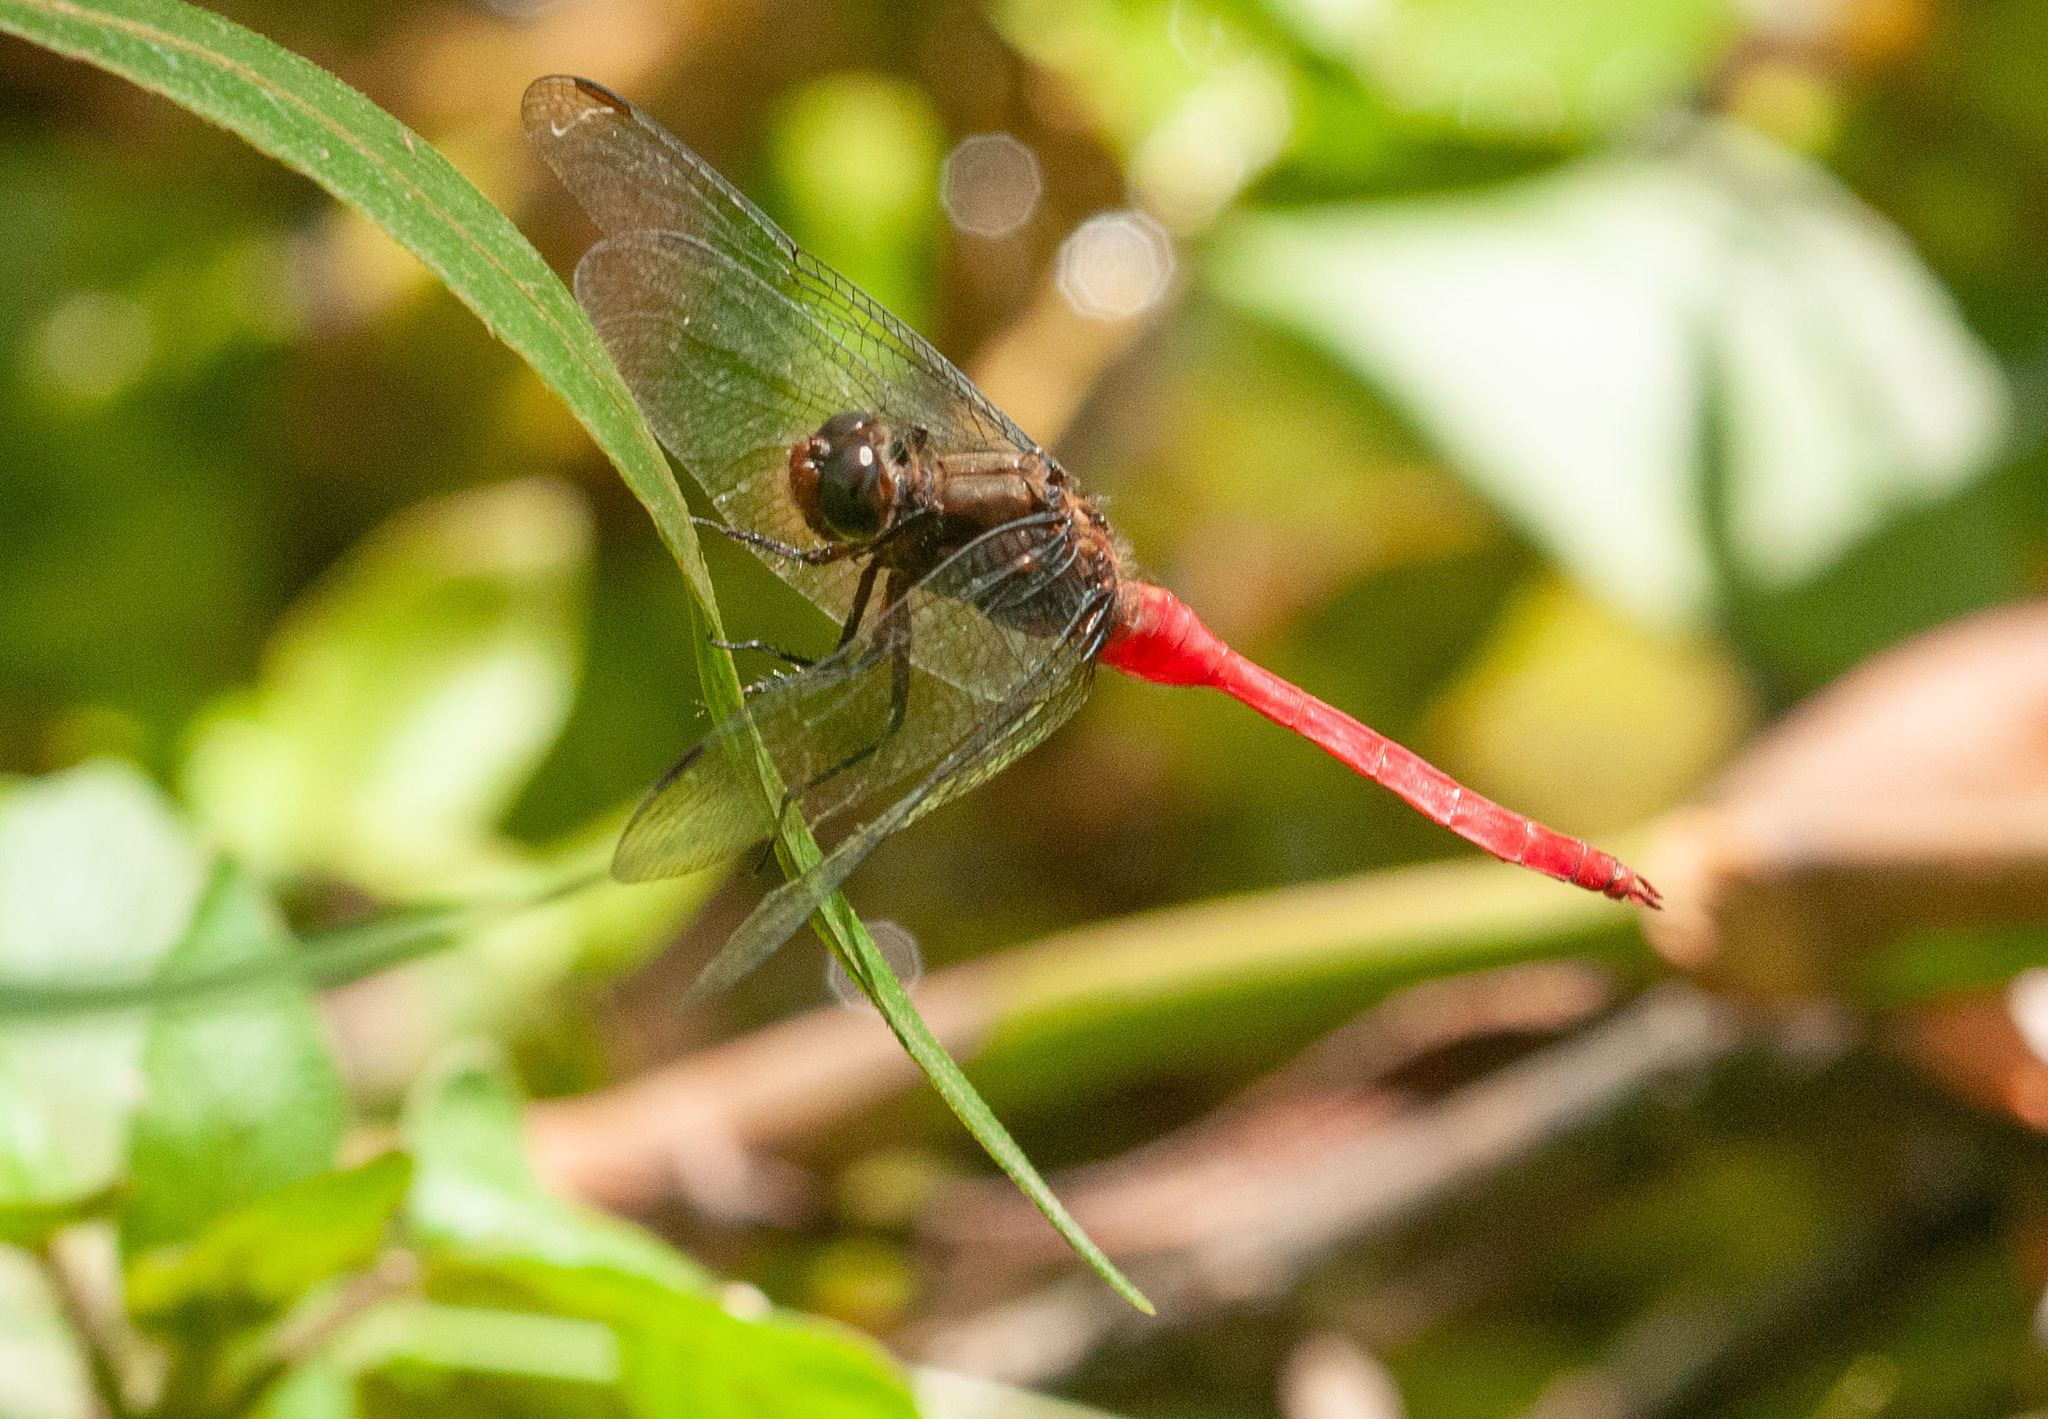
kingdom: Animalia
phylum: Arthropoda
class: Insecta
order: Odonata
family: Libellulidae
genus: Orthetrum
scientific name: Orthetrum villosovittatum
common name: Firery skimmer
